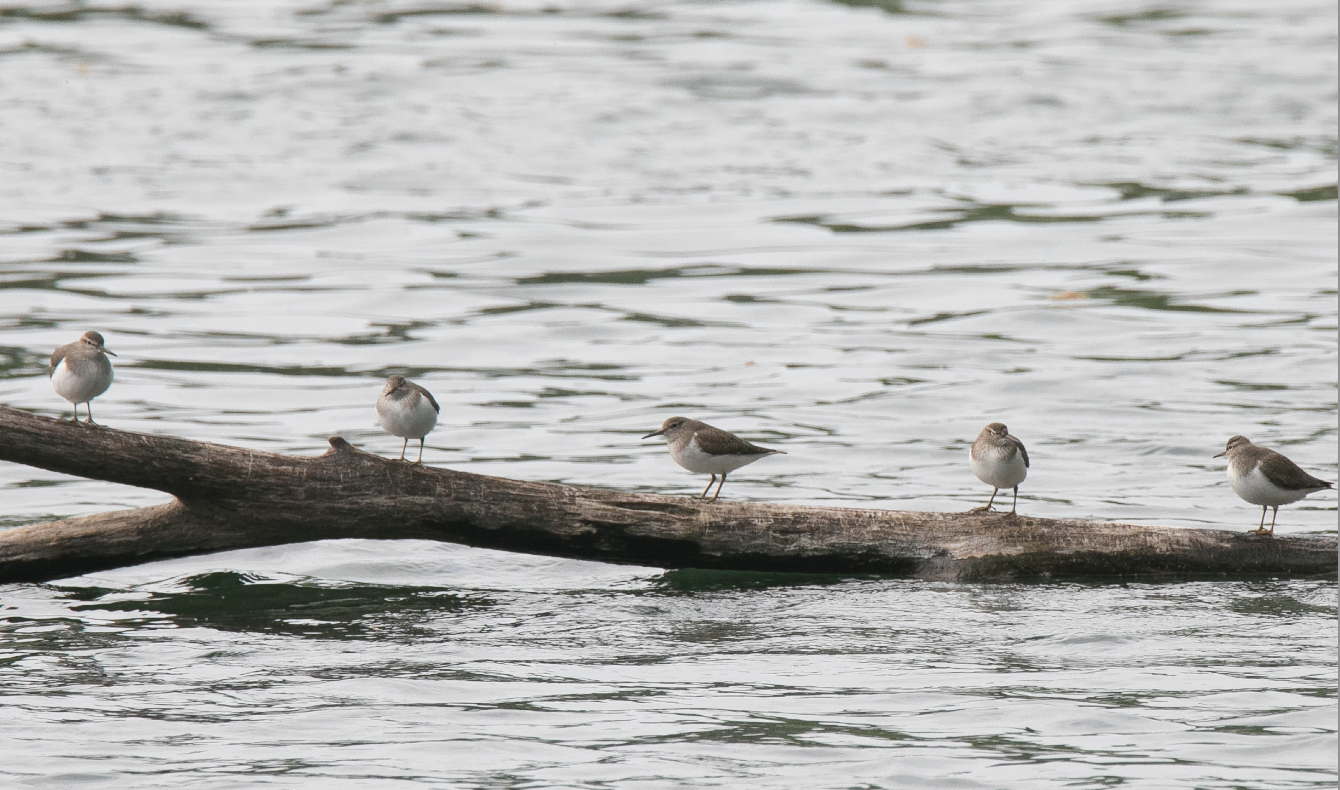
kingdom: Animalia
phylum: Chordata
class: Aves
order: Charadriiformes
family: Scolopacidae
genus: Actitis
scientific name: Actitis hypoleucos
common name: Common sandpiper
